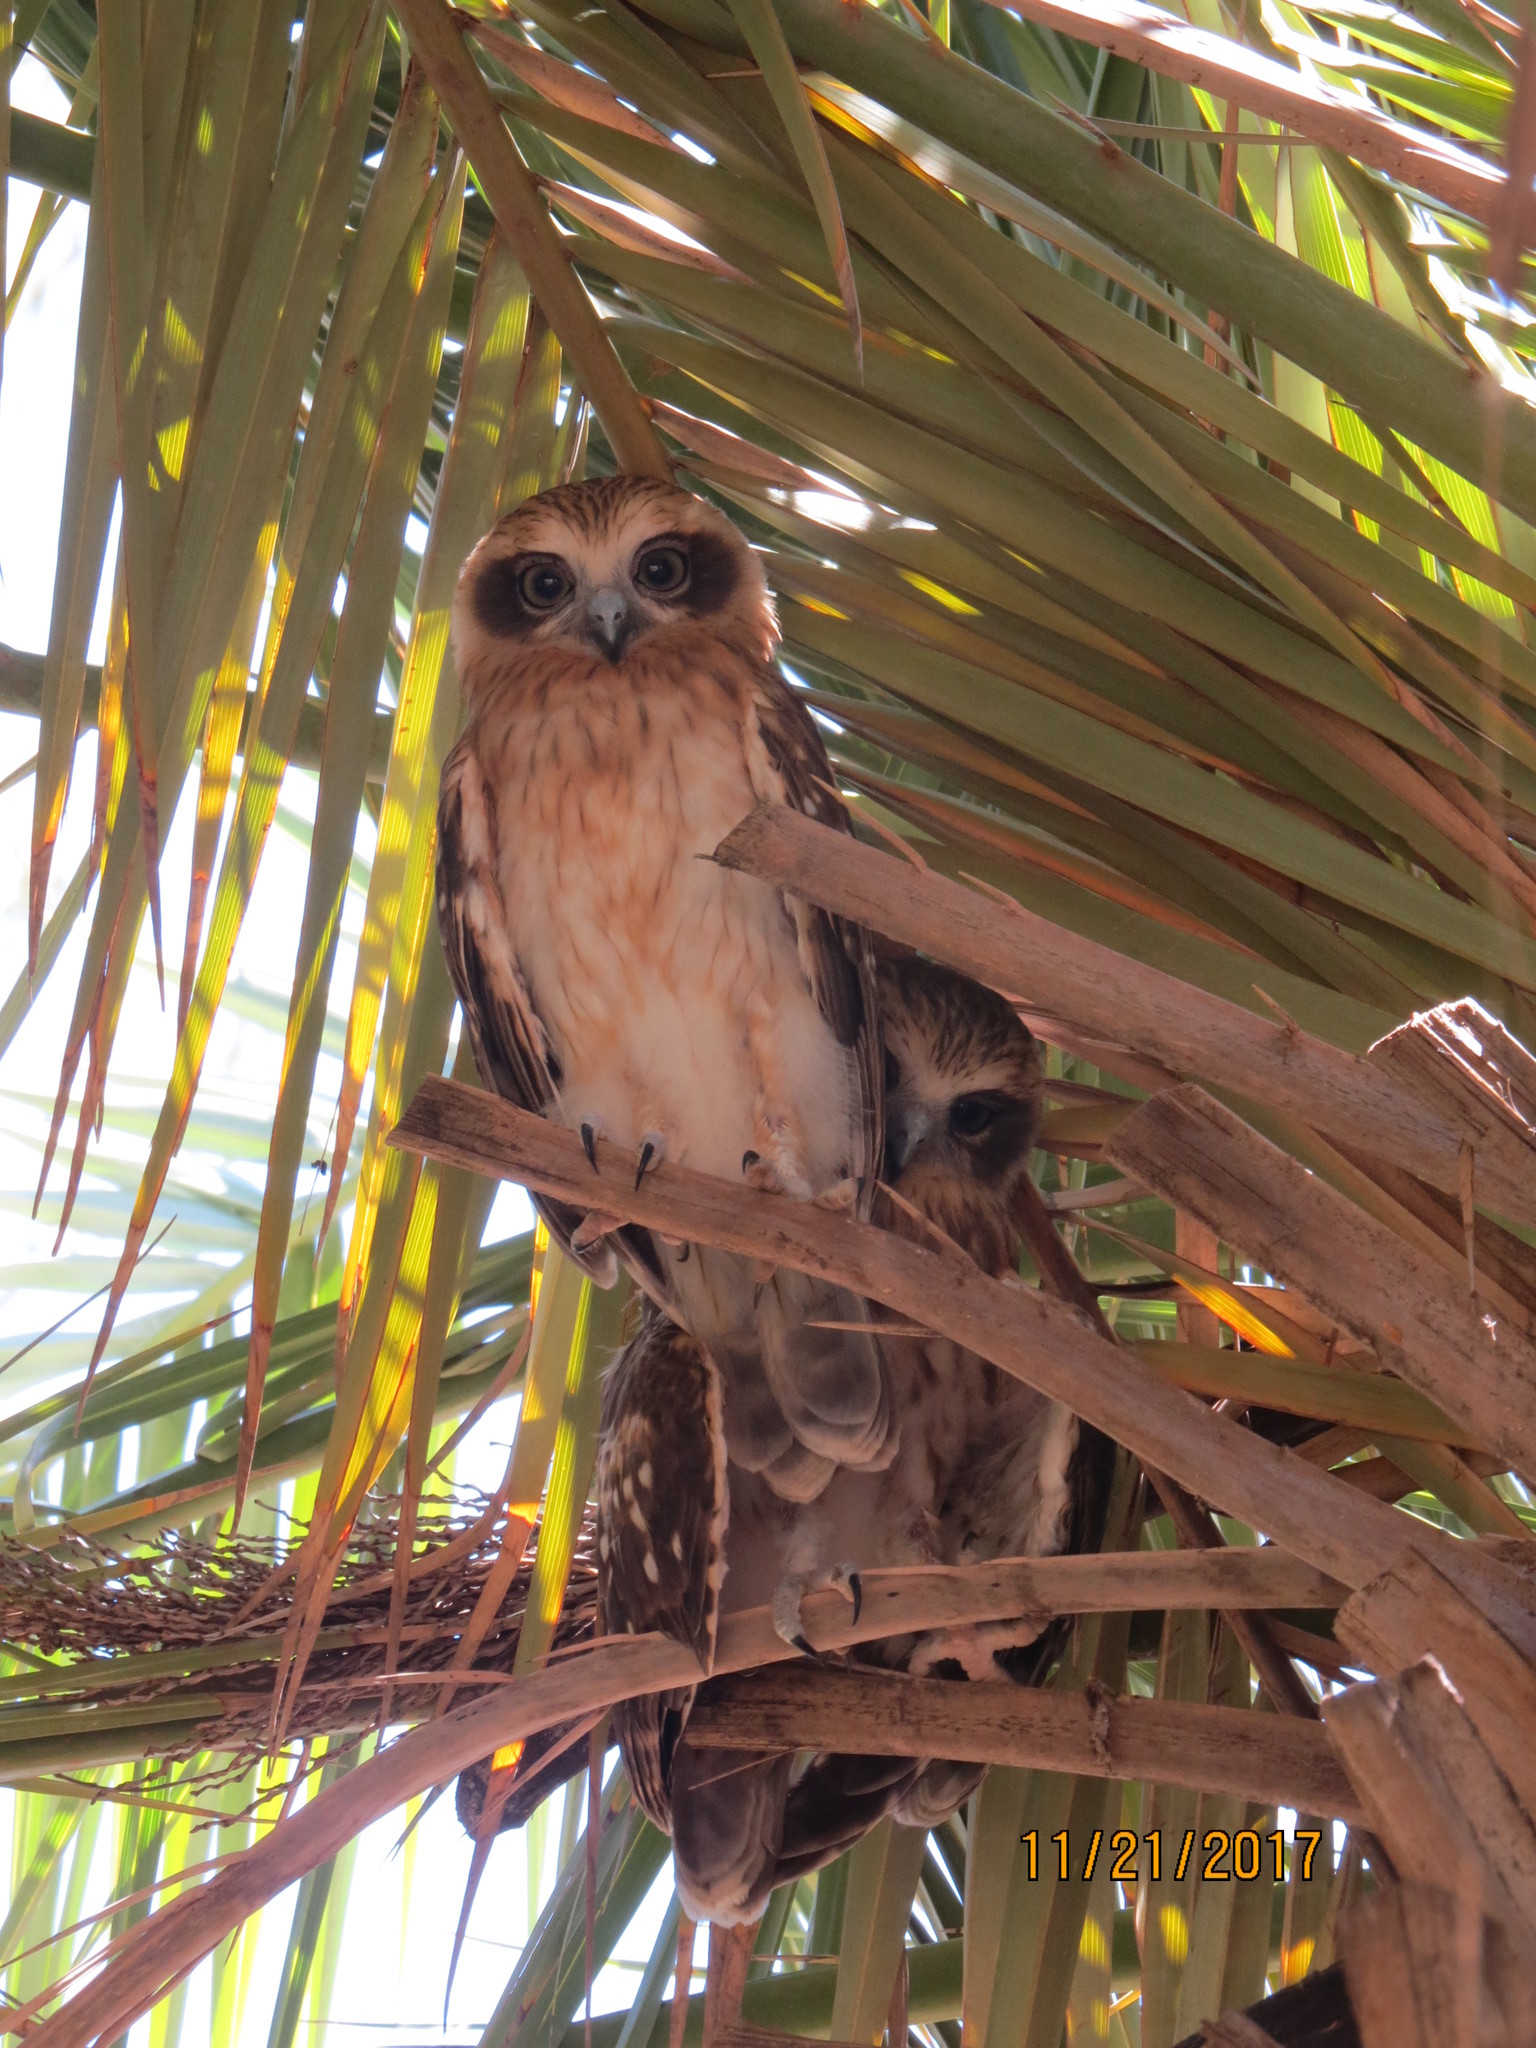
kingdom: Animalia
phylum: Chordata
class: Aves
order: Strigiformes
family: Strigidae
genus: Ninox
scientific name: Ninox boobook
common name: Southern boobook
